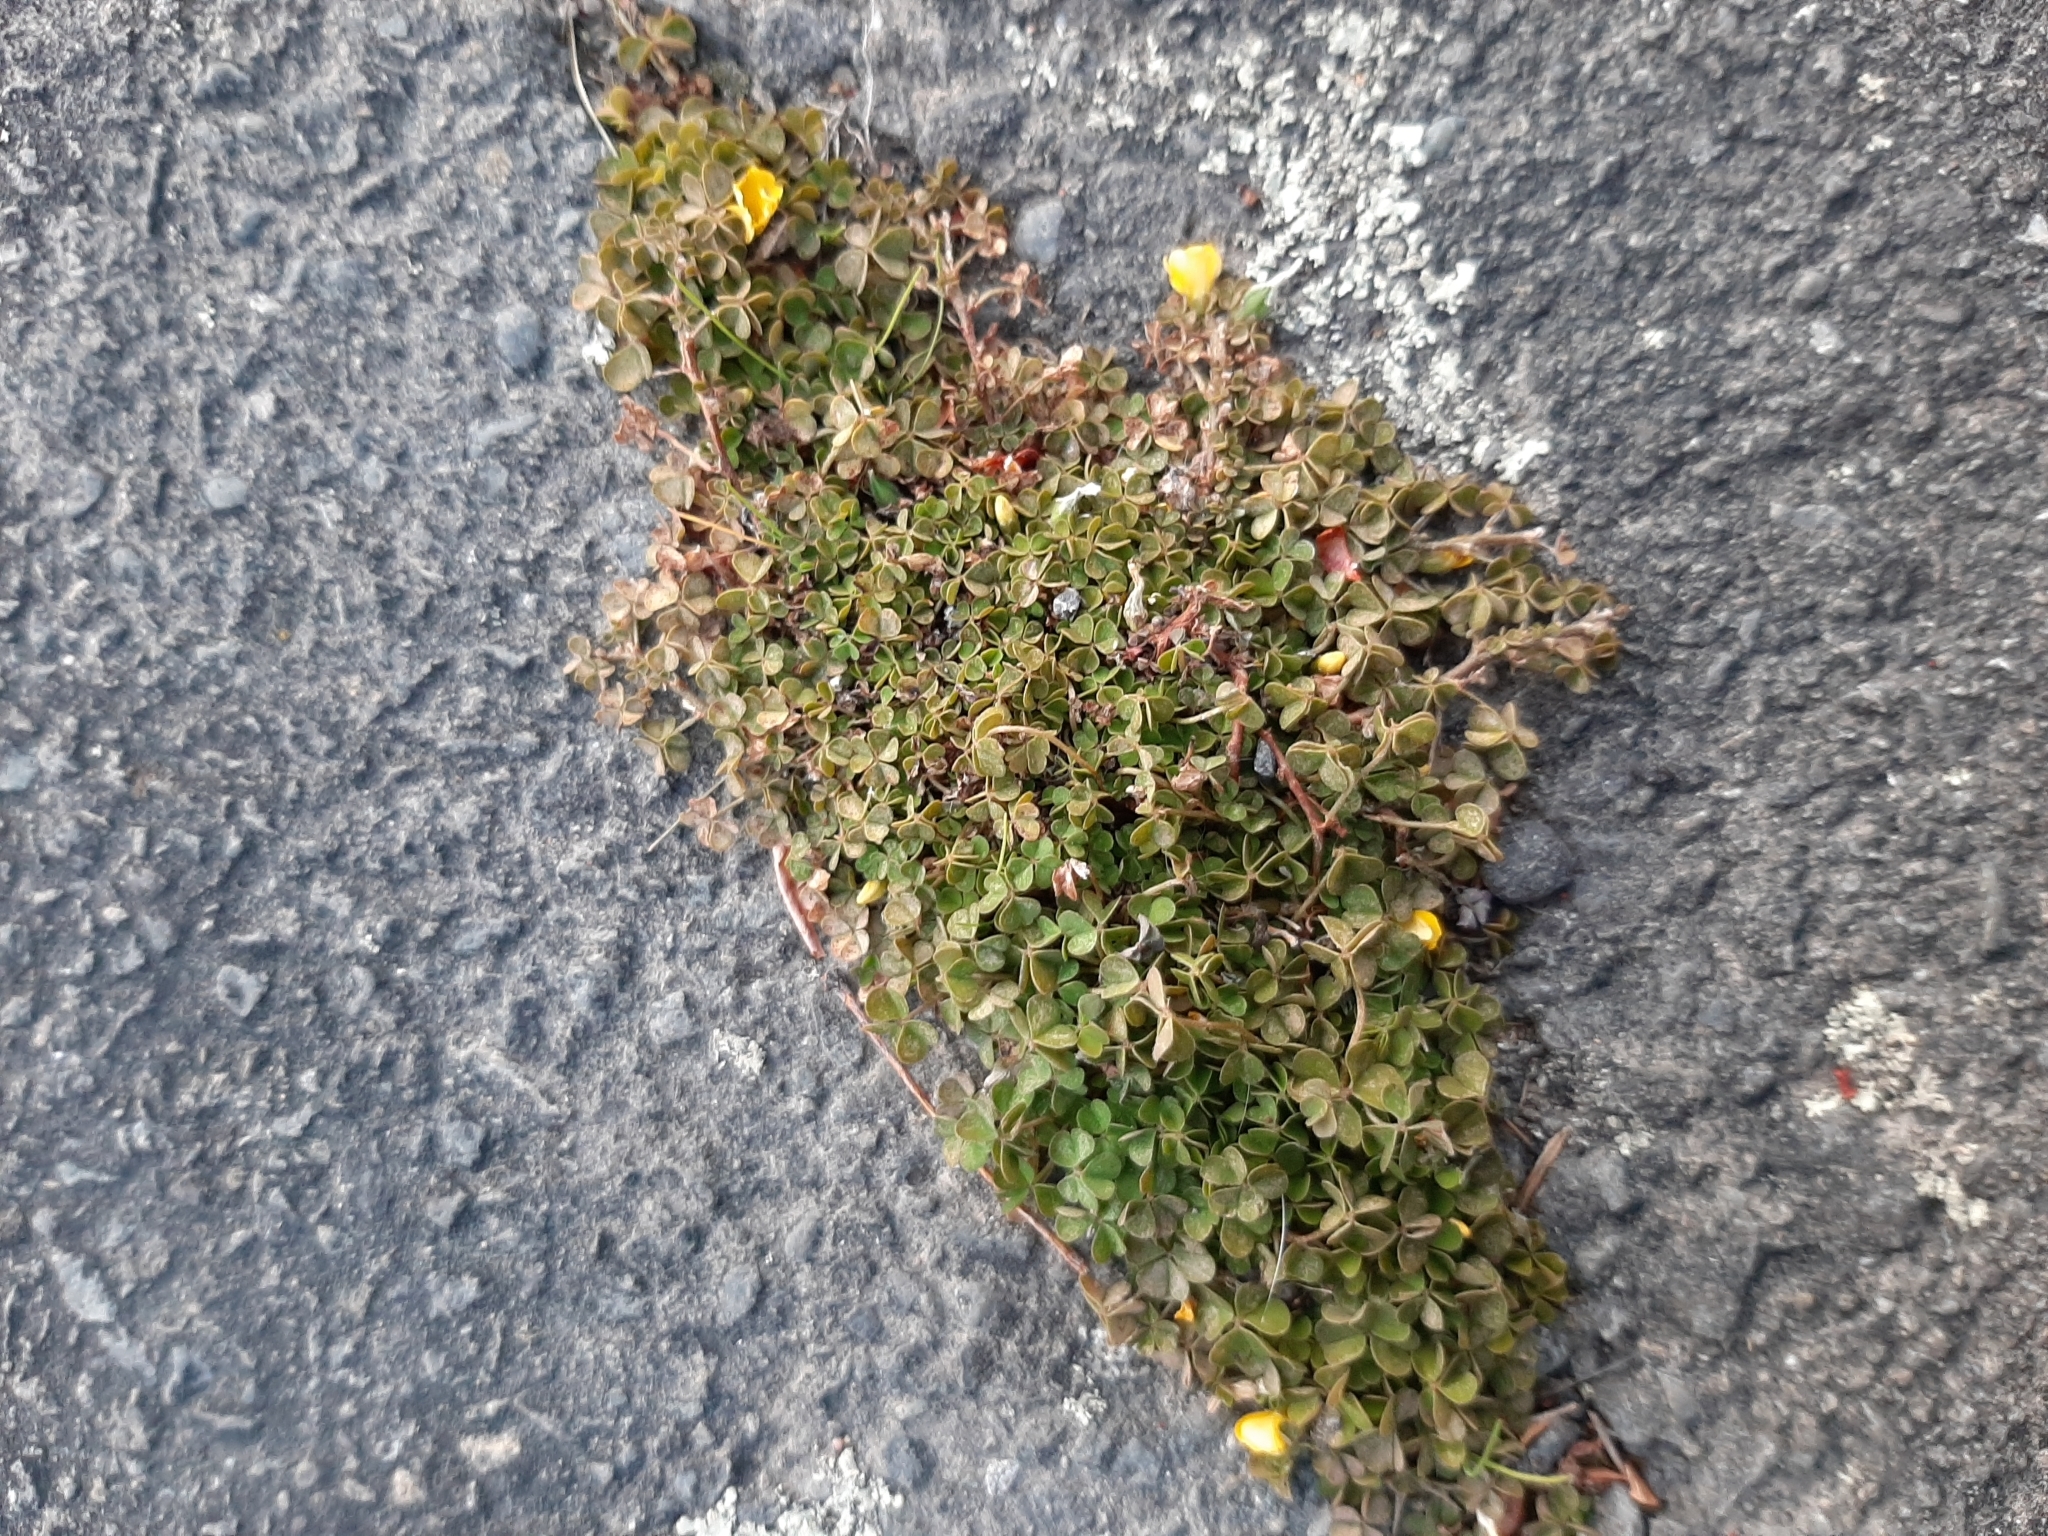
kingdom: Plantae
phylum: Tracheophyta
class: Magnoliopsida
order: Oxalidales
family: Oxalidaceae
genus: Oxalis
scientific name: Oxalis exilis
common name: Least yellow-sorrel
